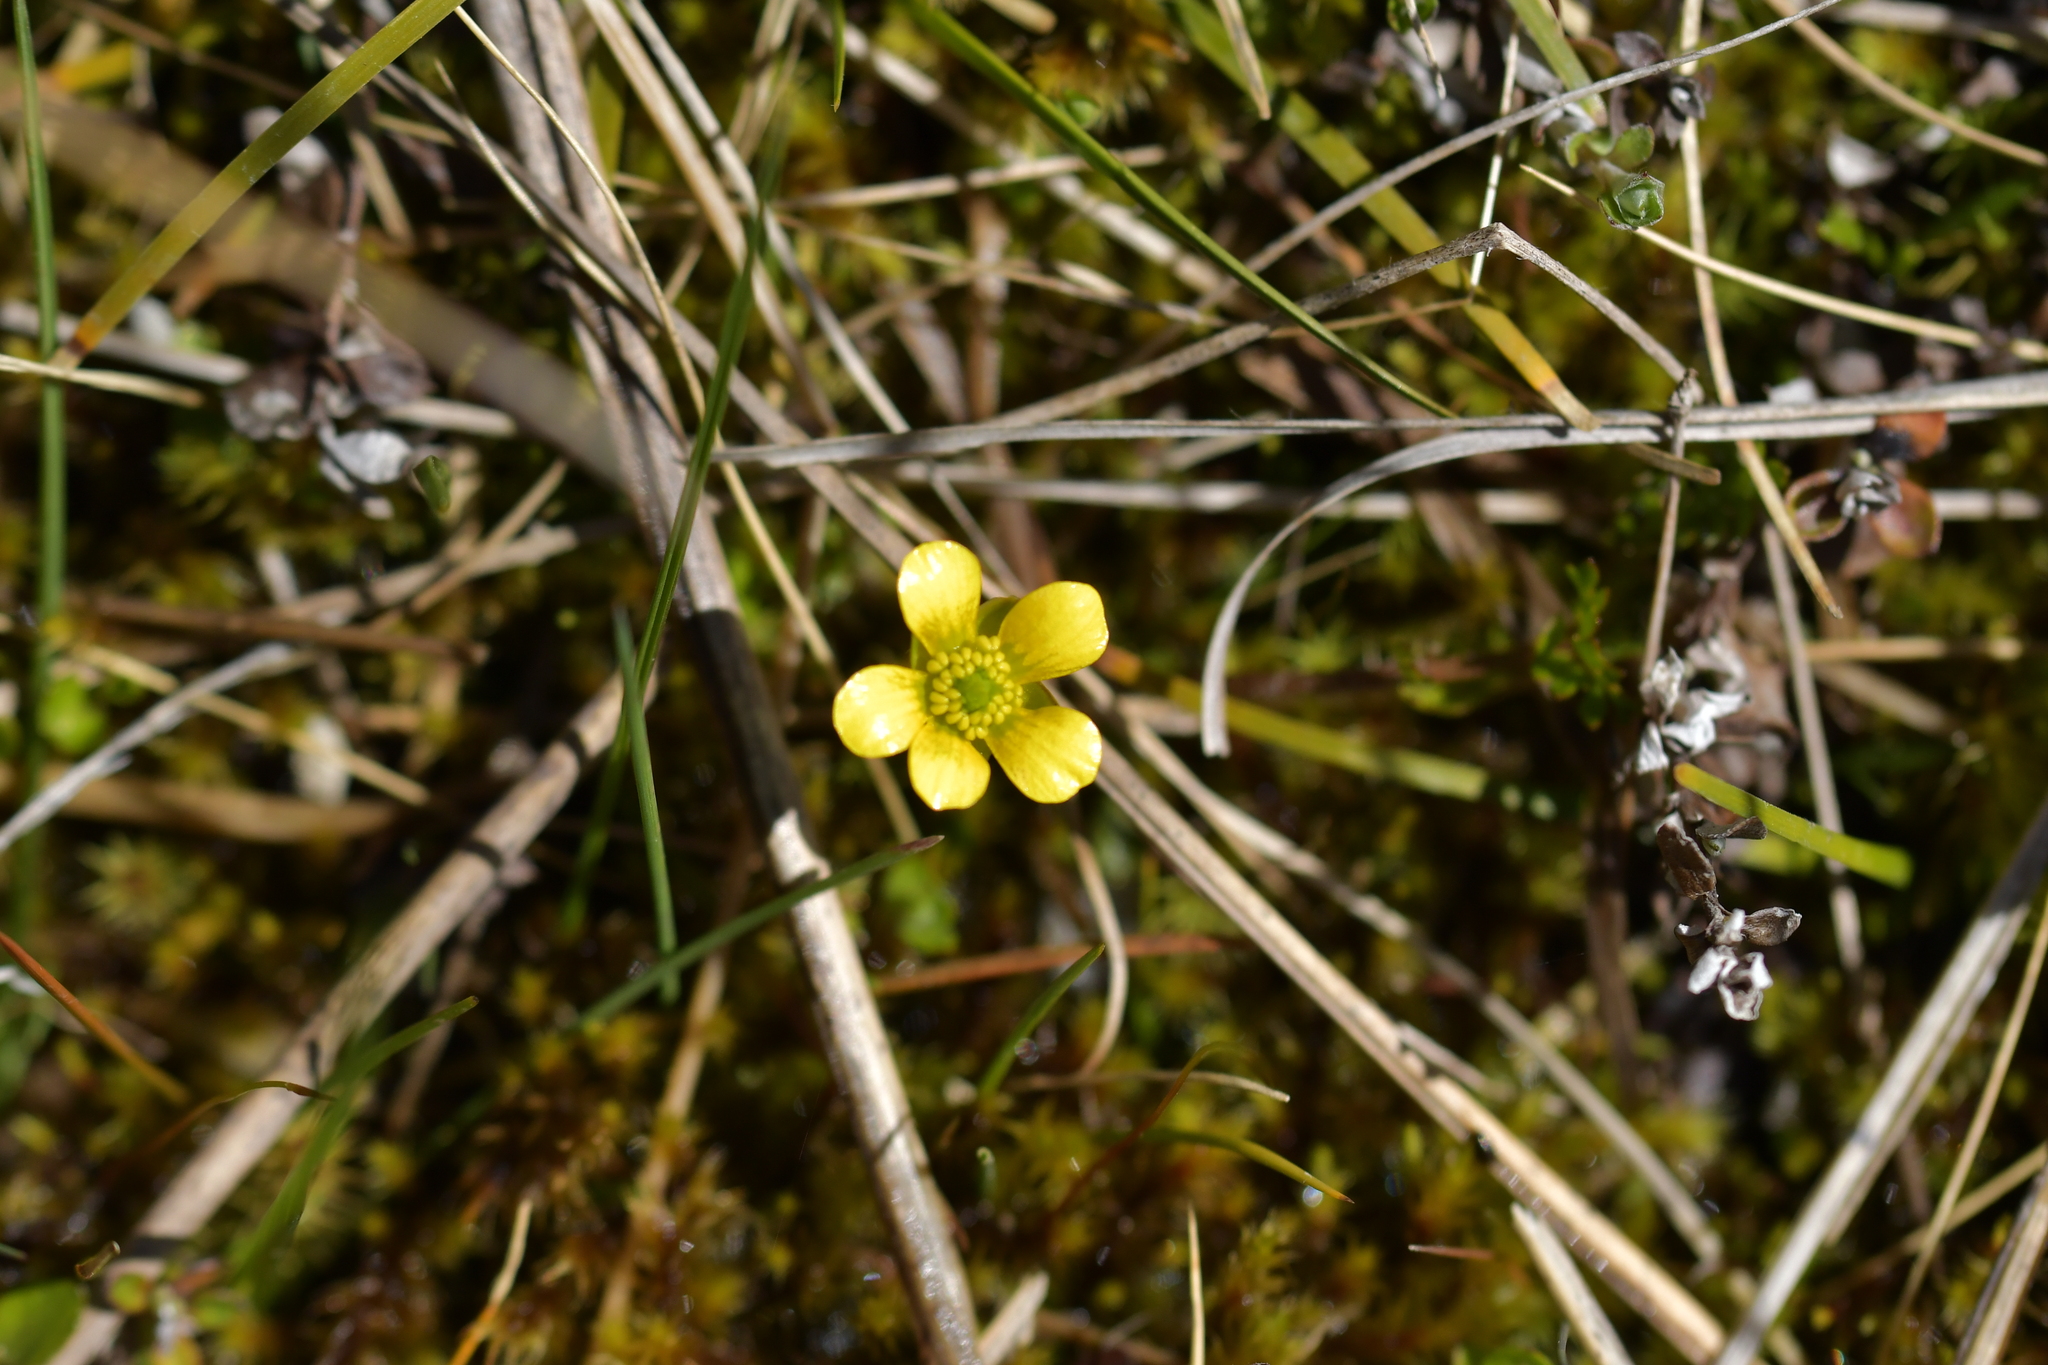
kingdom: Plantae
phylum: Tracheophyta
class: Magnoliopsida
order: Ranunculales
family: Ranunculaceae
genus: Ranunculus
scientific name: Ranunculus gracilipes
